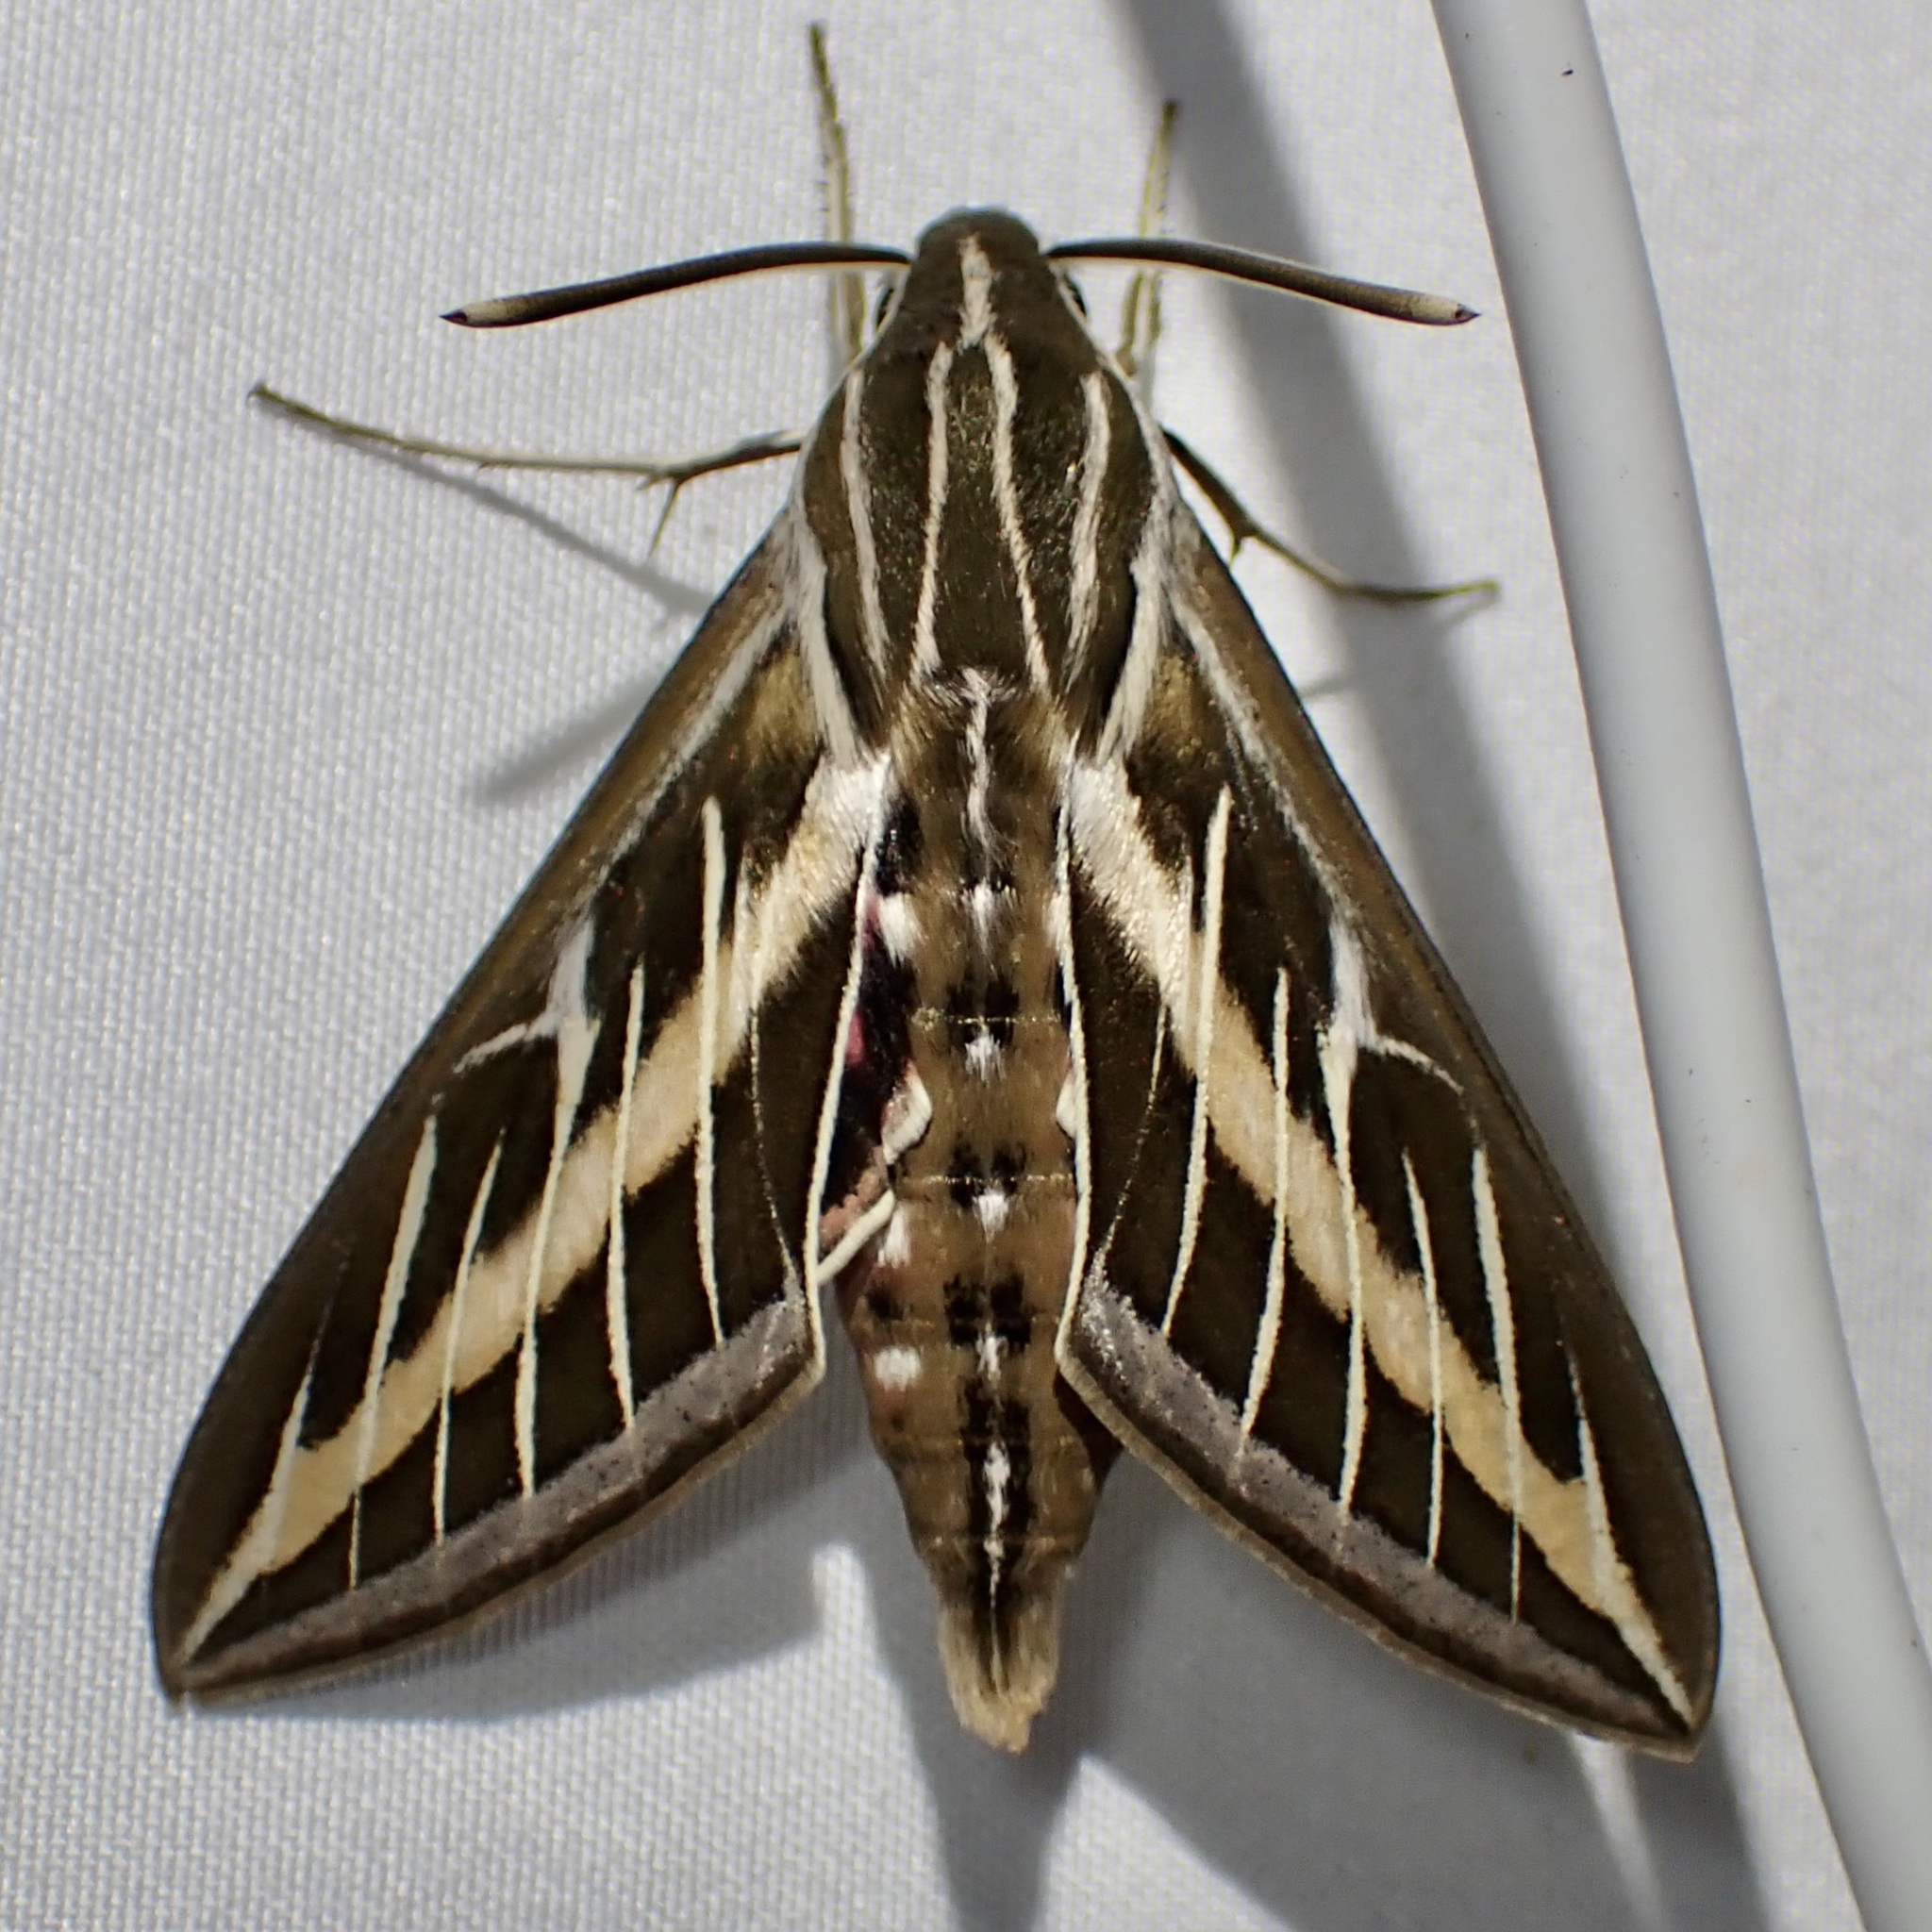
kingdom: Animalia
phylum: Arthropoda
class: Insecta
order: Lepidoptera
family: Sphingidae
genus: Hyles
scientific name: Hyles lineata
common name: White-lined sphinx
